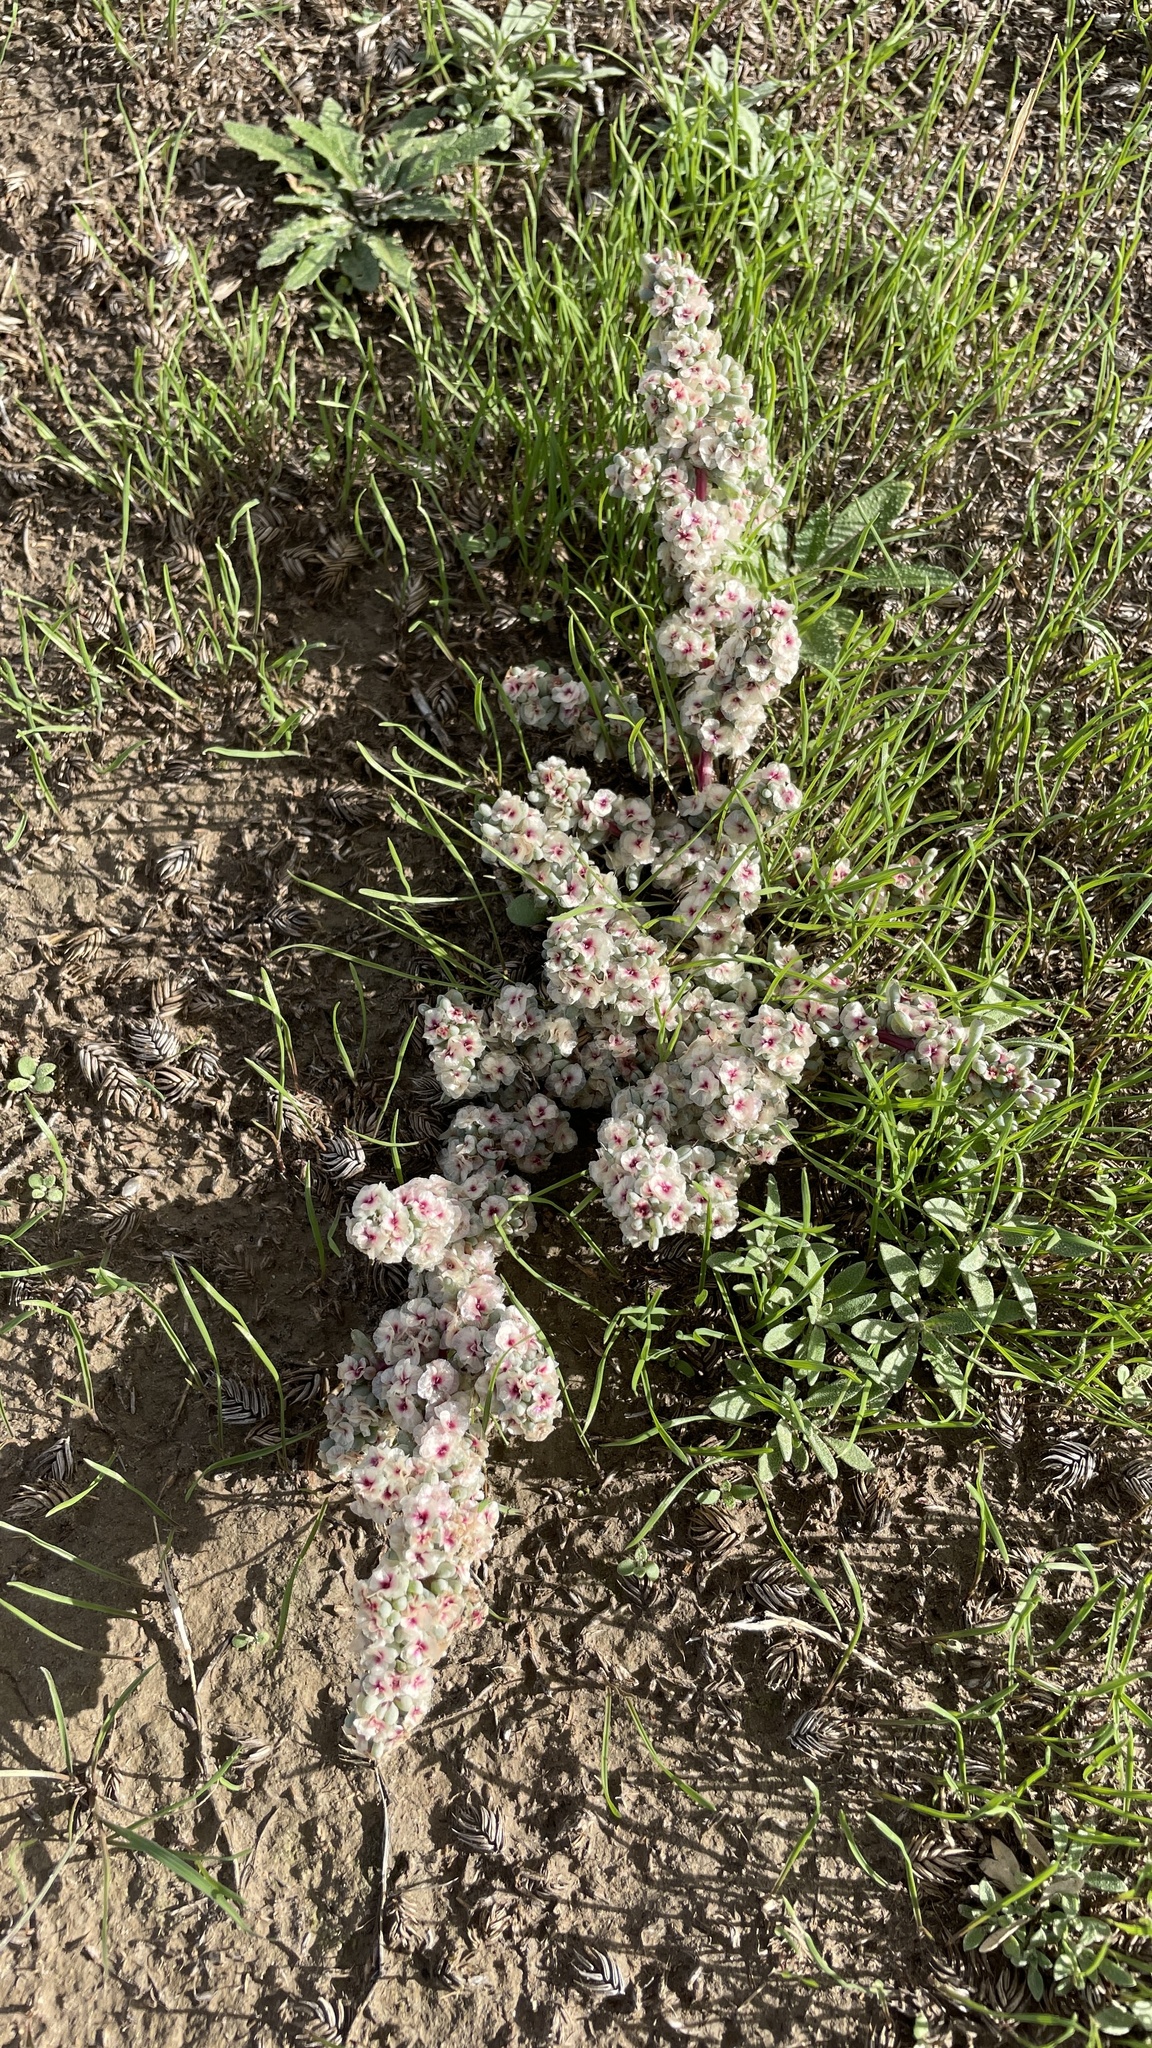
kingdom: Plantae
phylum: Tracheophyta
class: Magnoliopsida
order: Caryophyllales
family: Amaranthaceae
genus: Halogeton
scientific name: Halogeton glomeratus
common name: Saltlover
